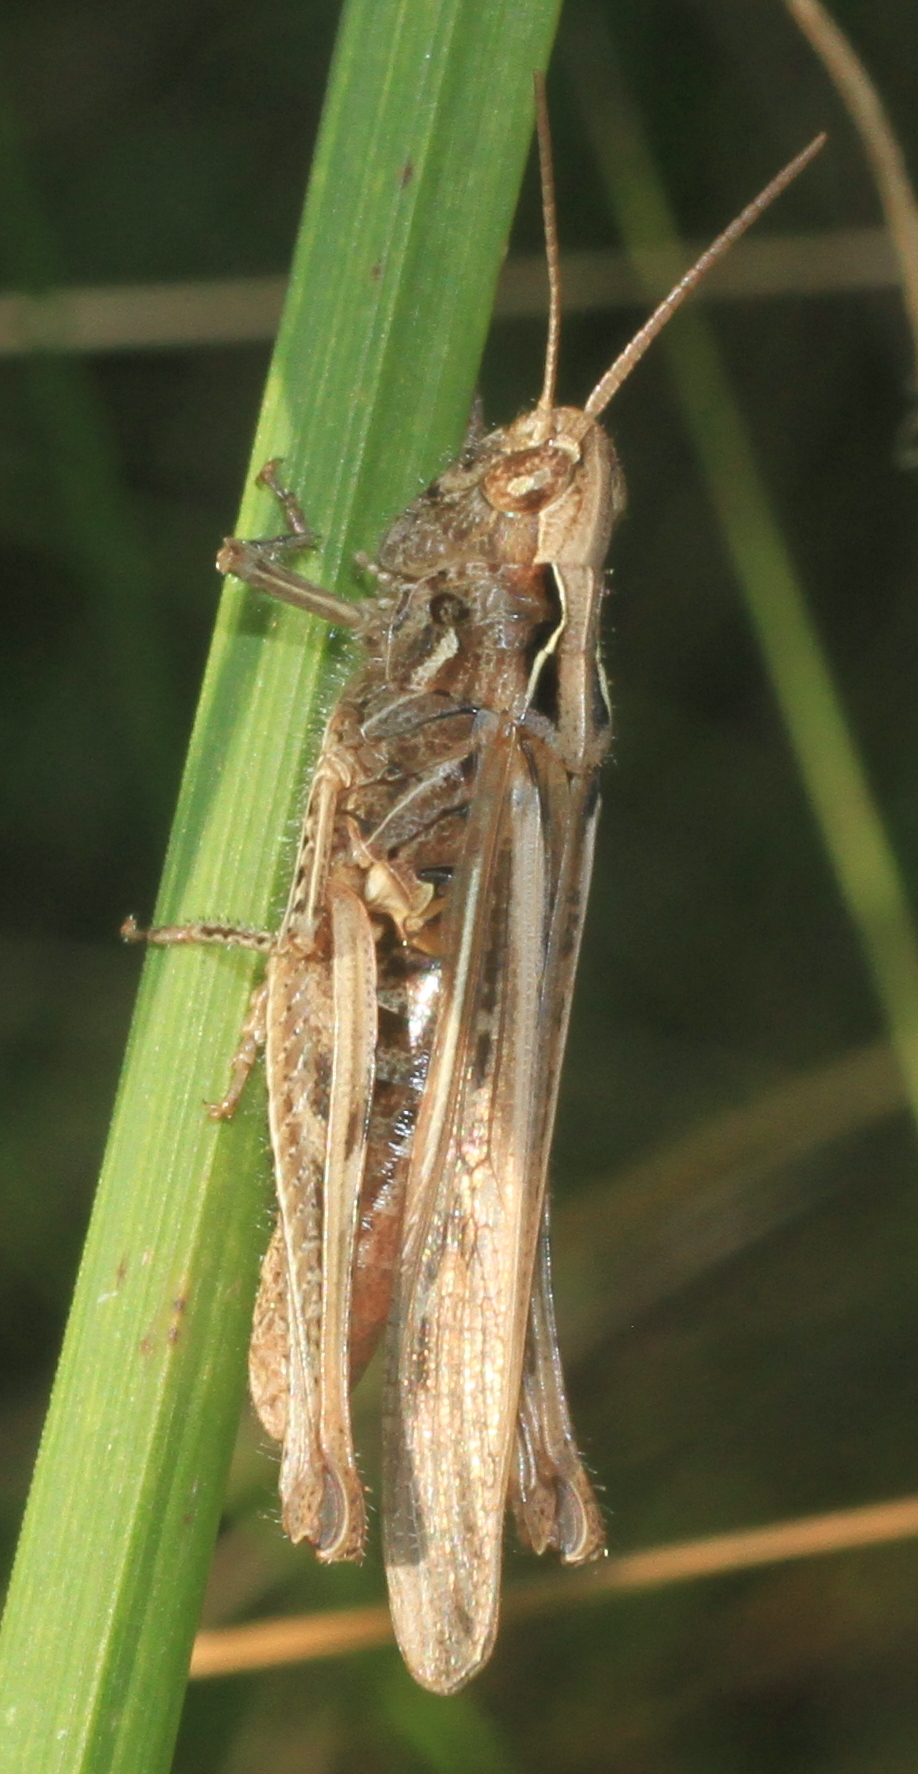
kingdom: Animalia
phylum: Arthropoda
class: Insecta
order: Orthoptera
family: Acrididae
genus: Chorthippus
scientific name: Chorthippus brunneus
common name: Field grasshopper
